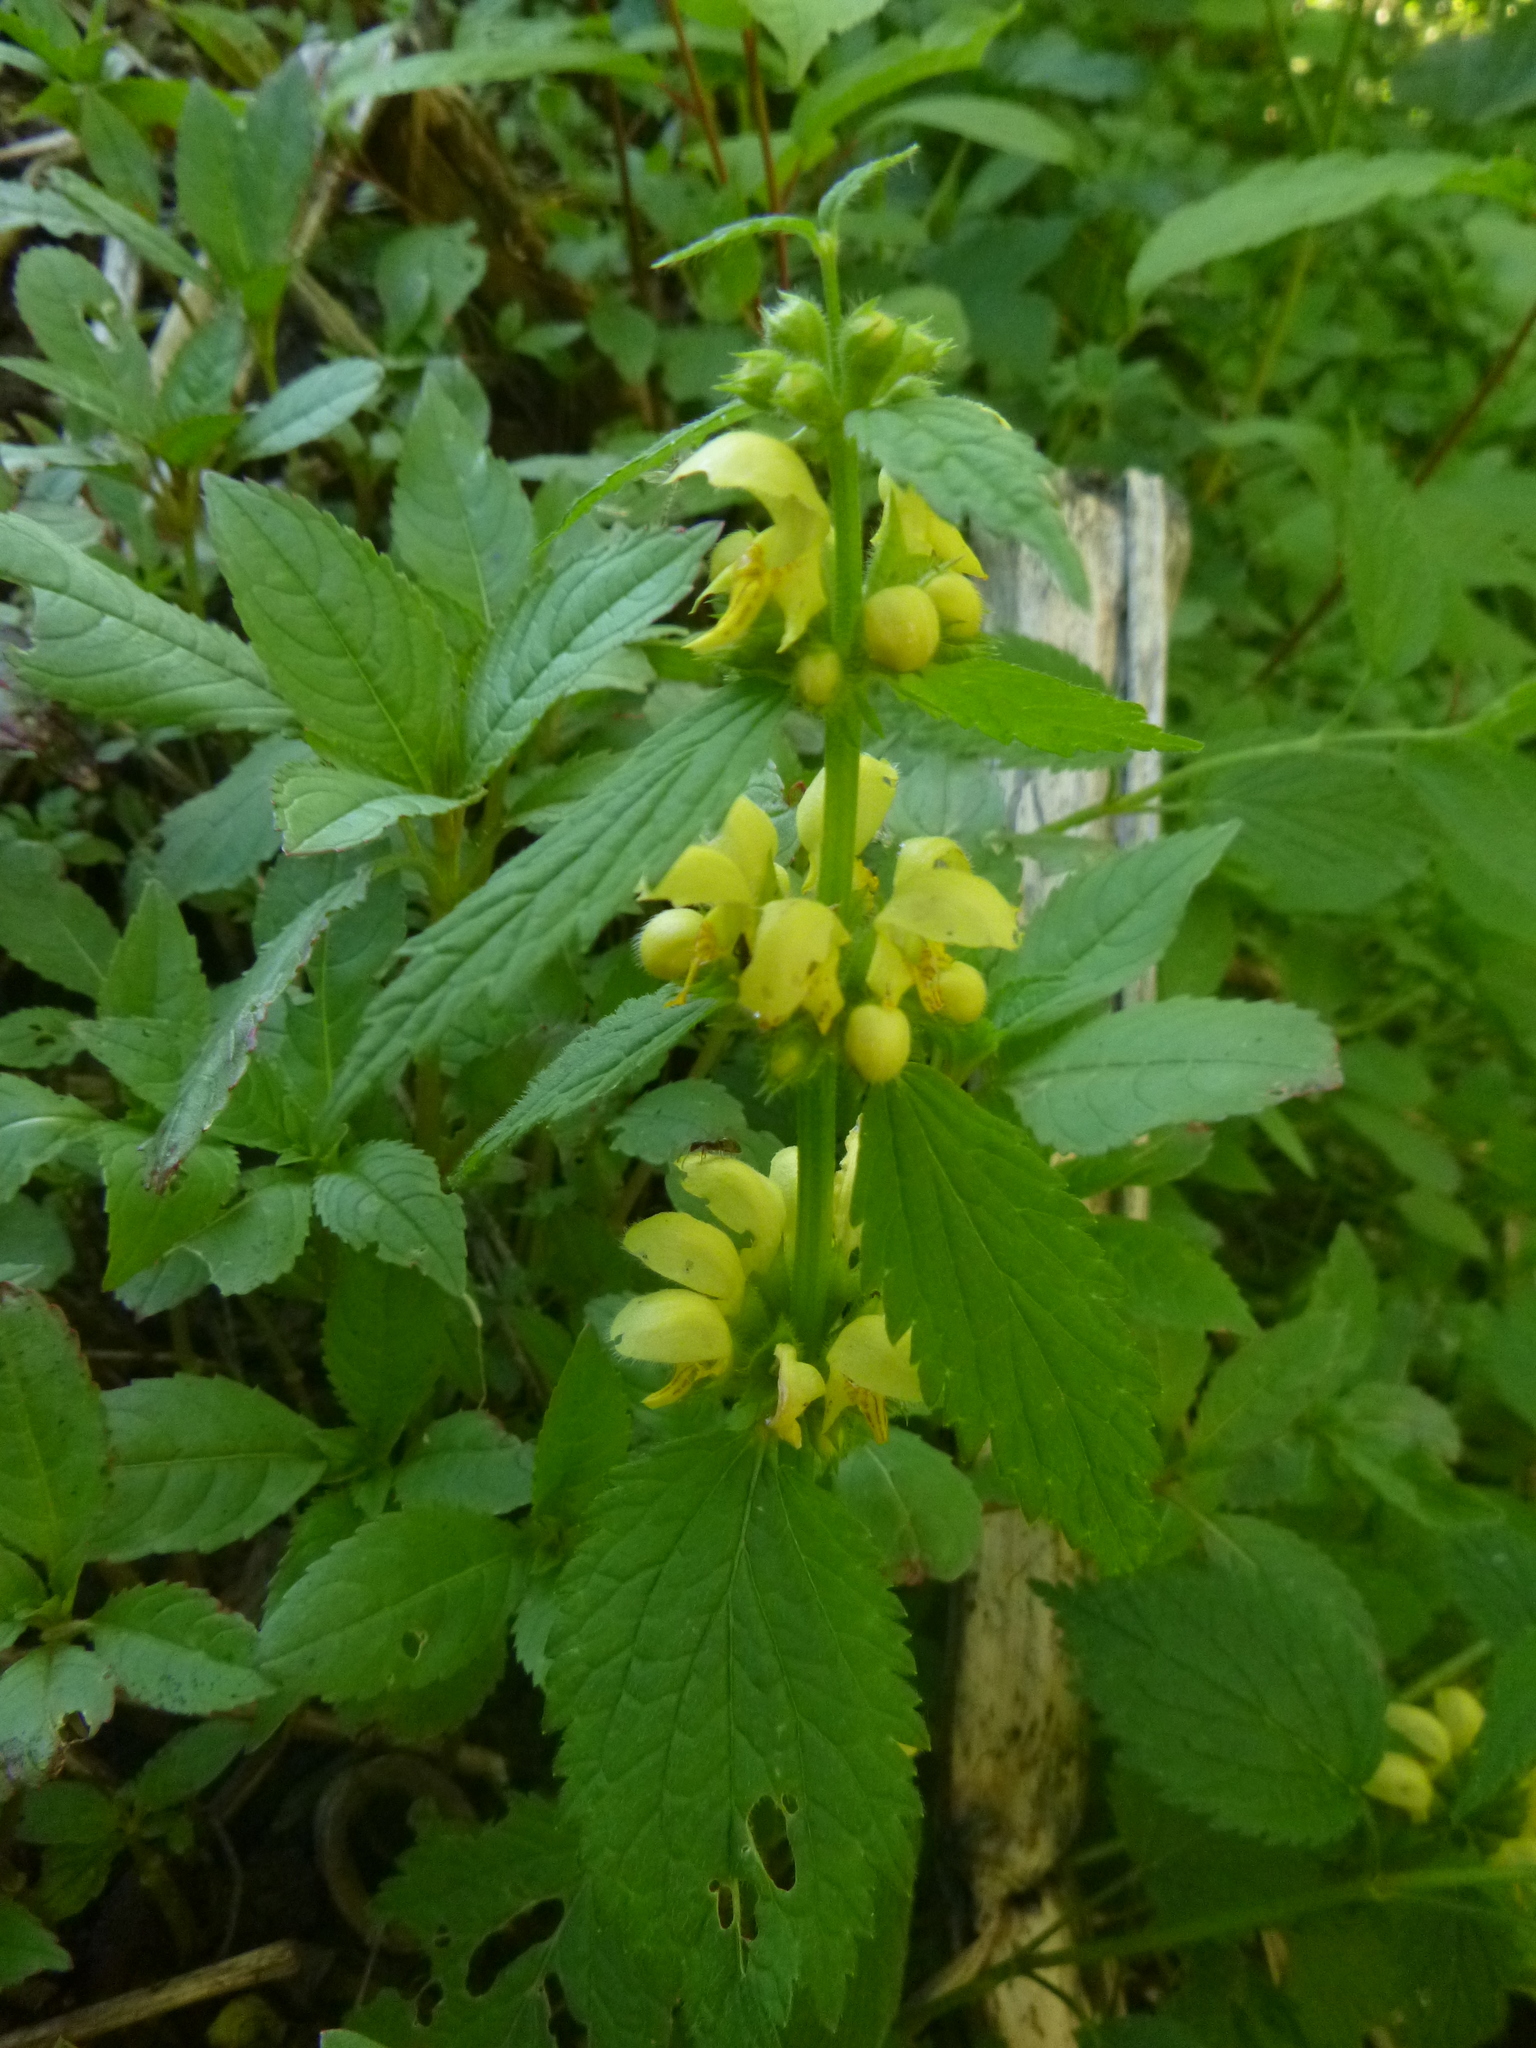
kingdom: Plantae
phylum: Tracheophyta
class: Magnoliopsida
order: Lamiales
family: Lamiaceae
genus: Lamium
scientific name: Lamium galeobdolon
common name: Yellow archangel
